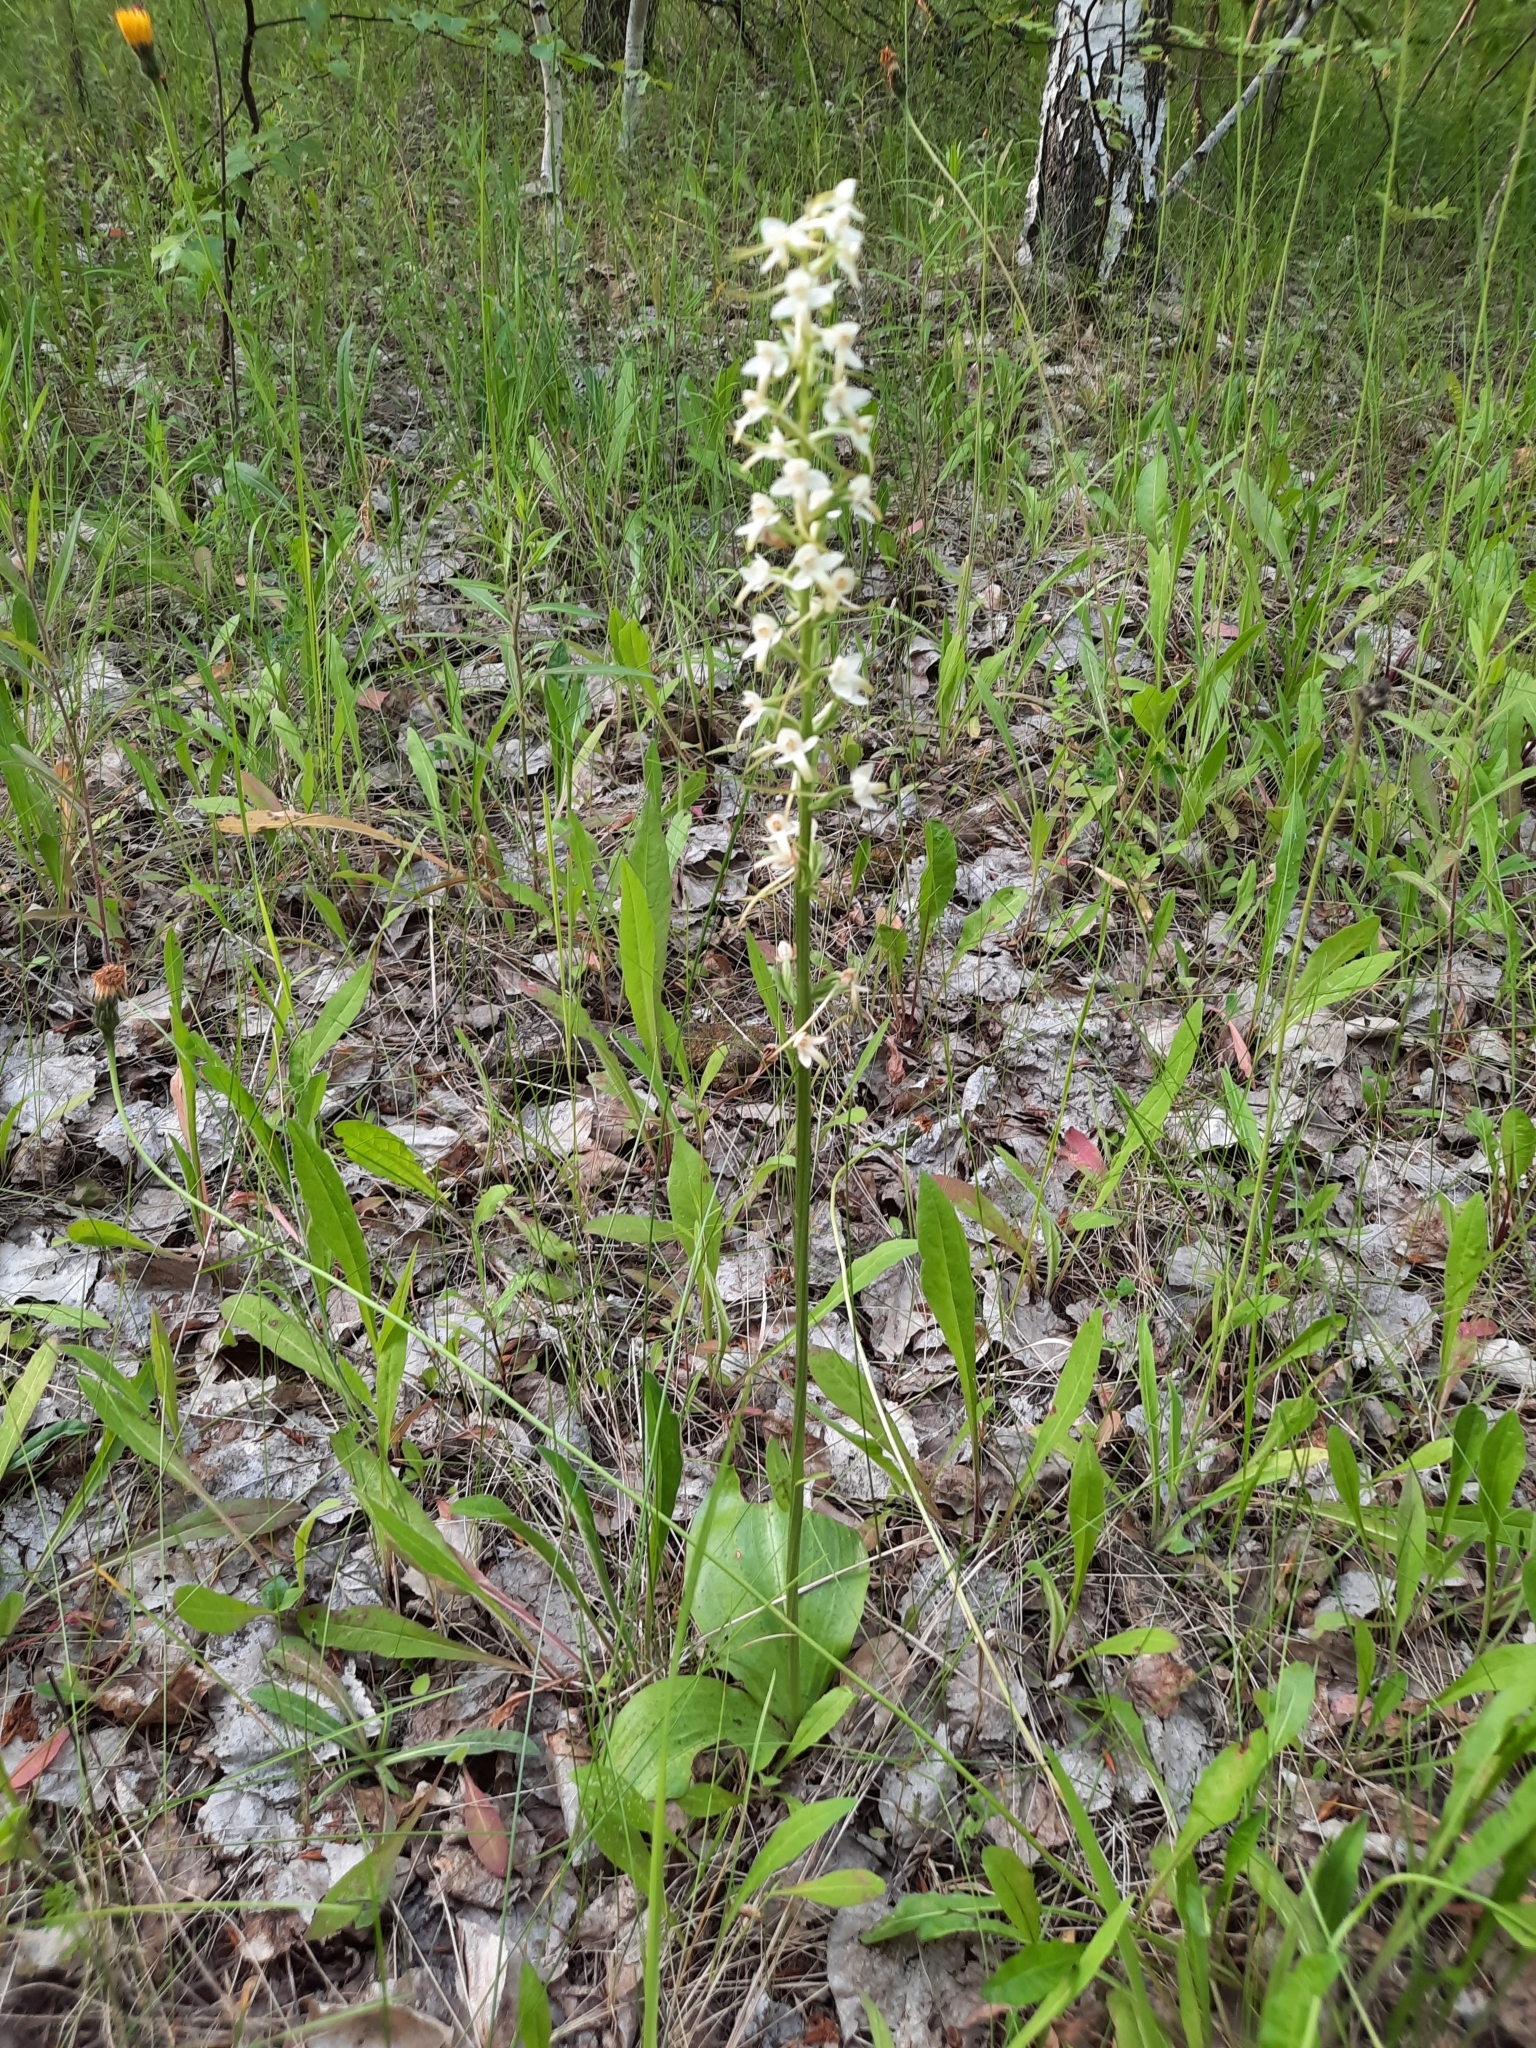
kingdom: Plantae
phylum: Tracheophyta
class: Liliopsida
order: Asparagales
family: Orchidaceae
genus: Platanthera
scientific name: Platanthera bifolia
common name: Lesser butterfly-orchid
